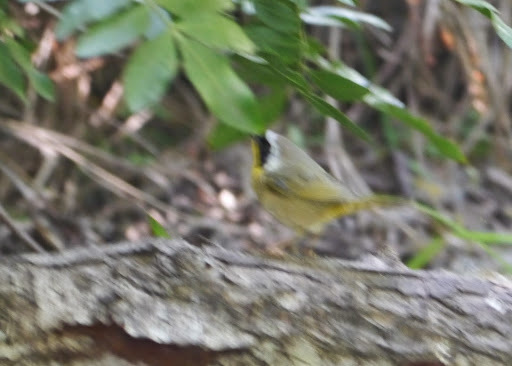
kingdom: Animalia
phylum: Chordata
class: Aves
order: Passeriformes
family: Parulidae
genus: Geothlypis
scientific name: Geothlypis trichas
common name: Common yellowthroat
